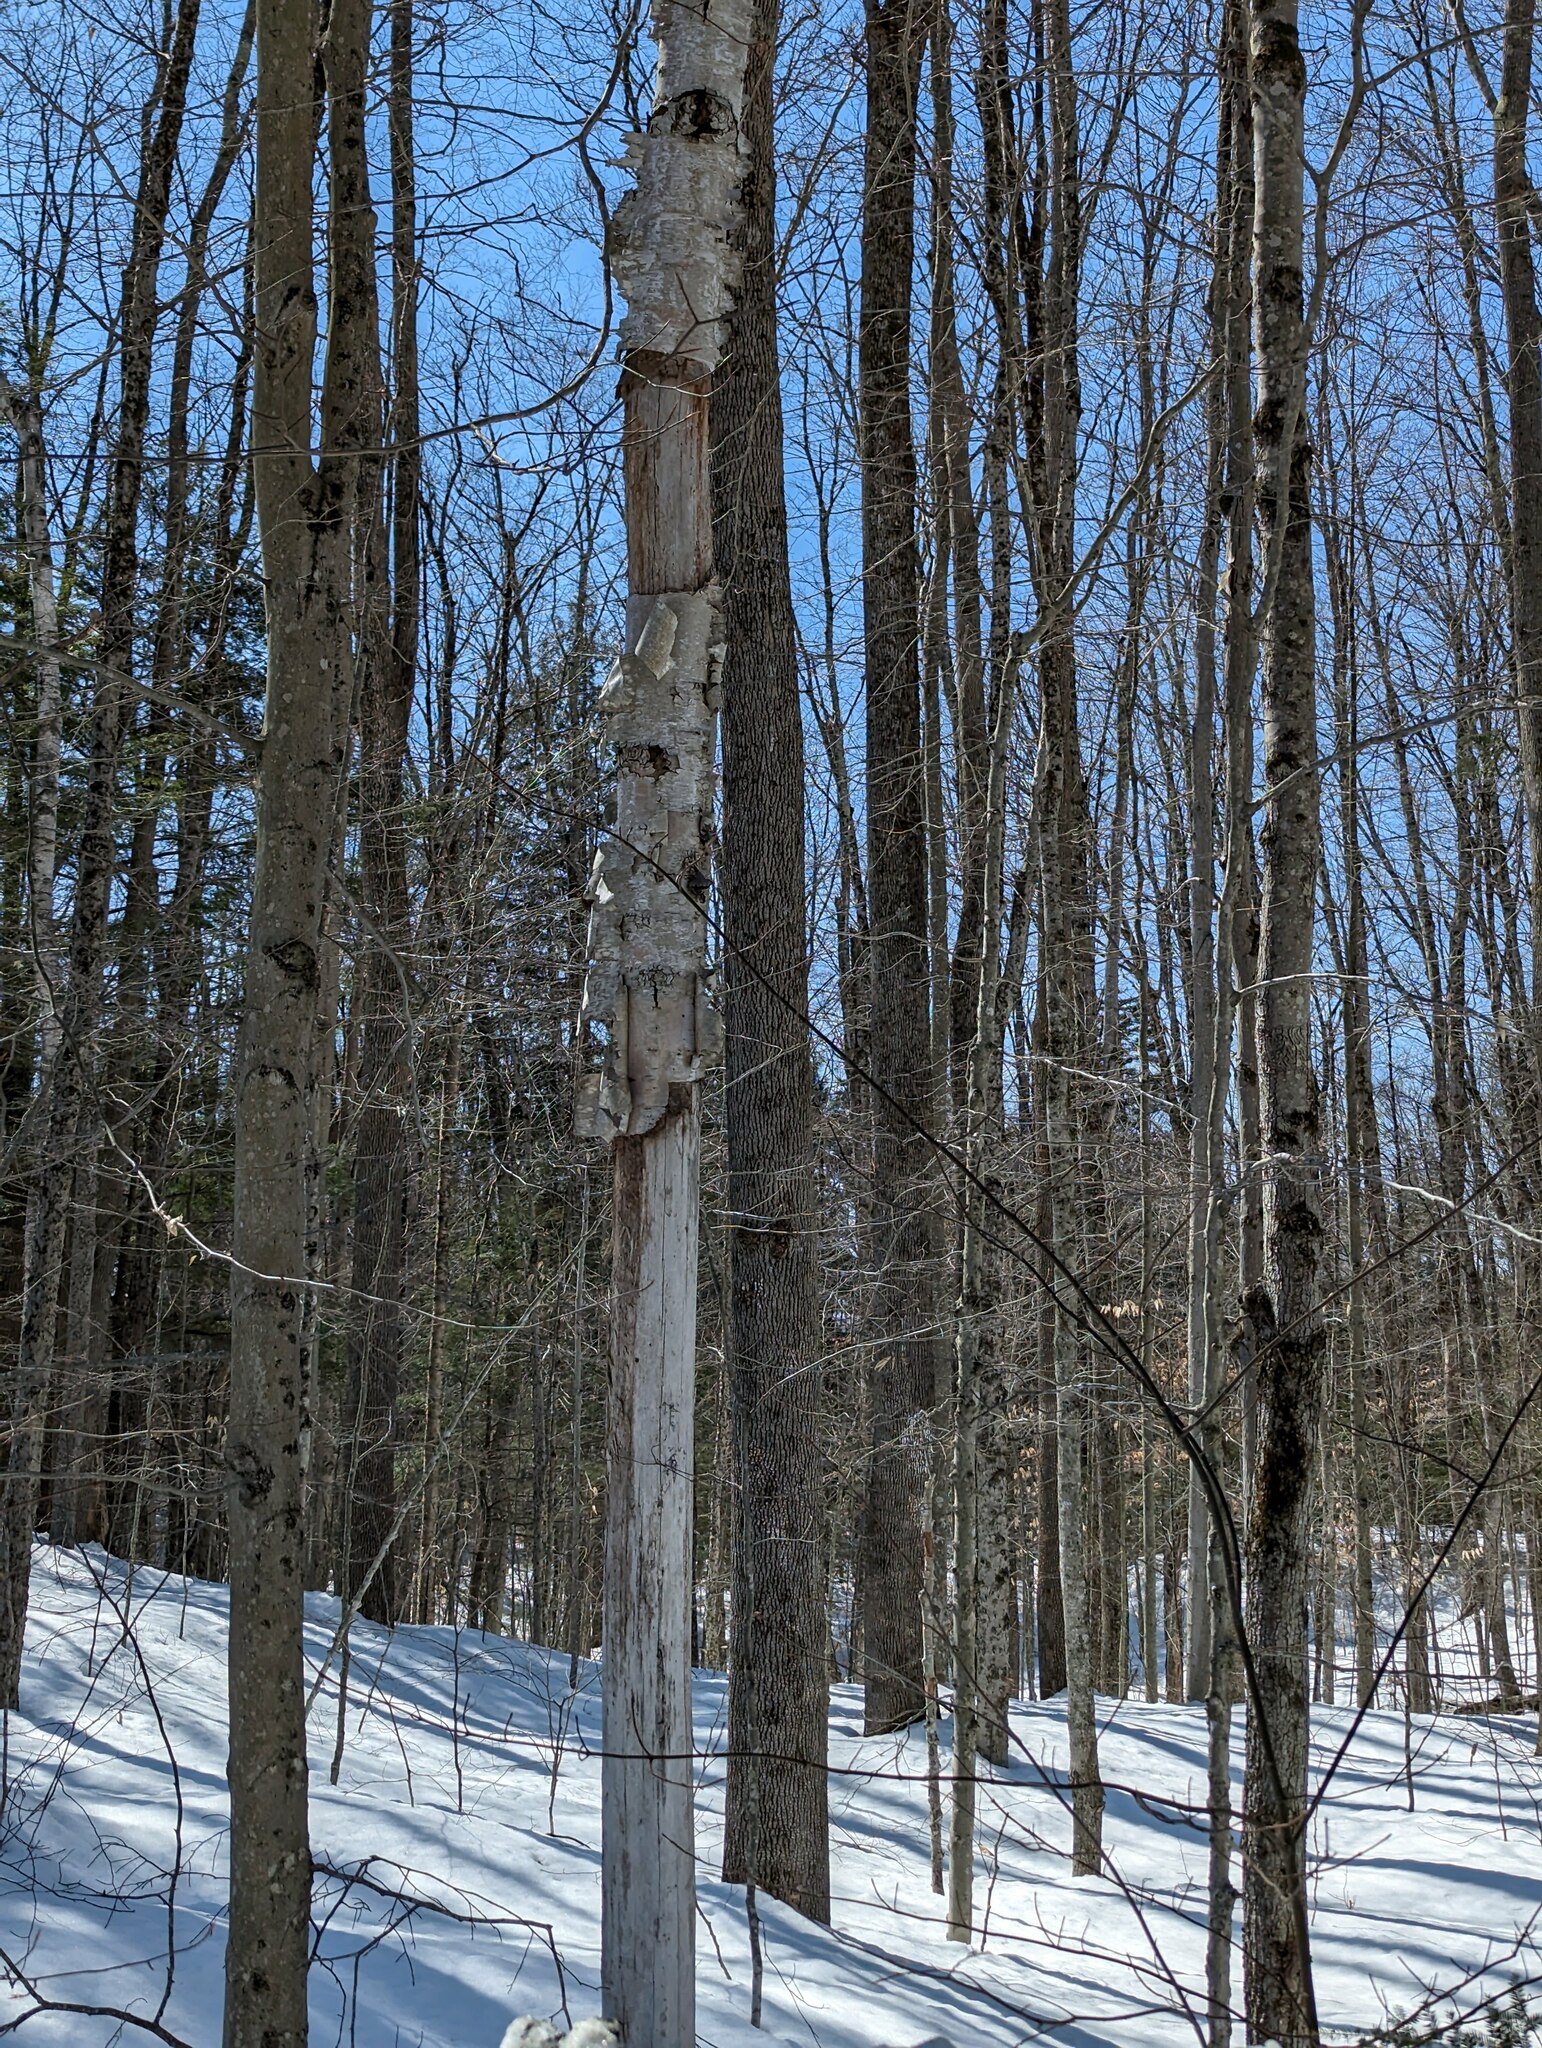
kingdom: Plantae
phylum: Tracheophyta
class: Magnoliopsida
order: Fagales
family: Betulaceae
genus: Betula
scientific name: Betula papyrifera
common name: Paper birch
